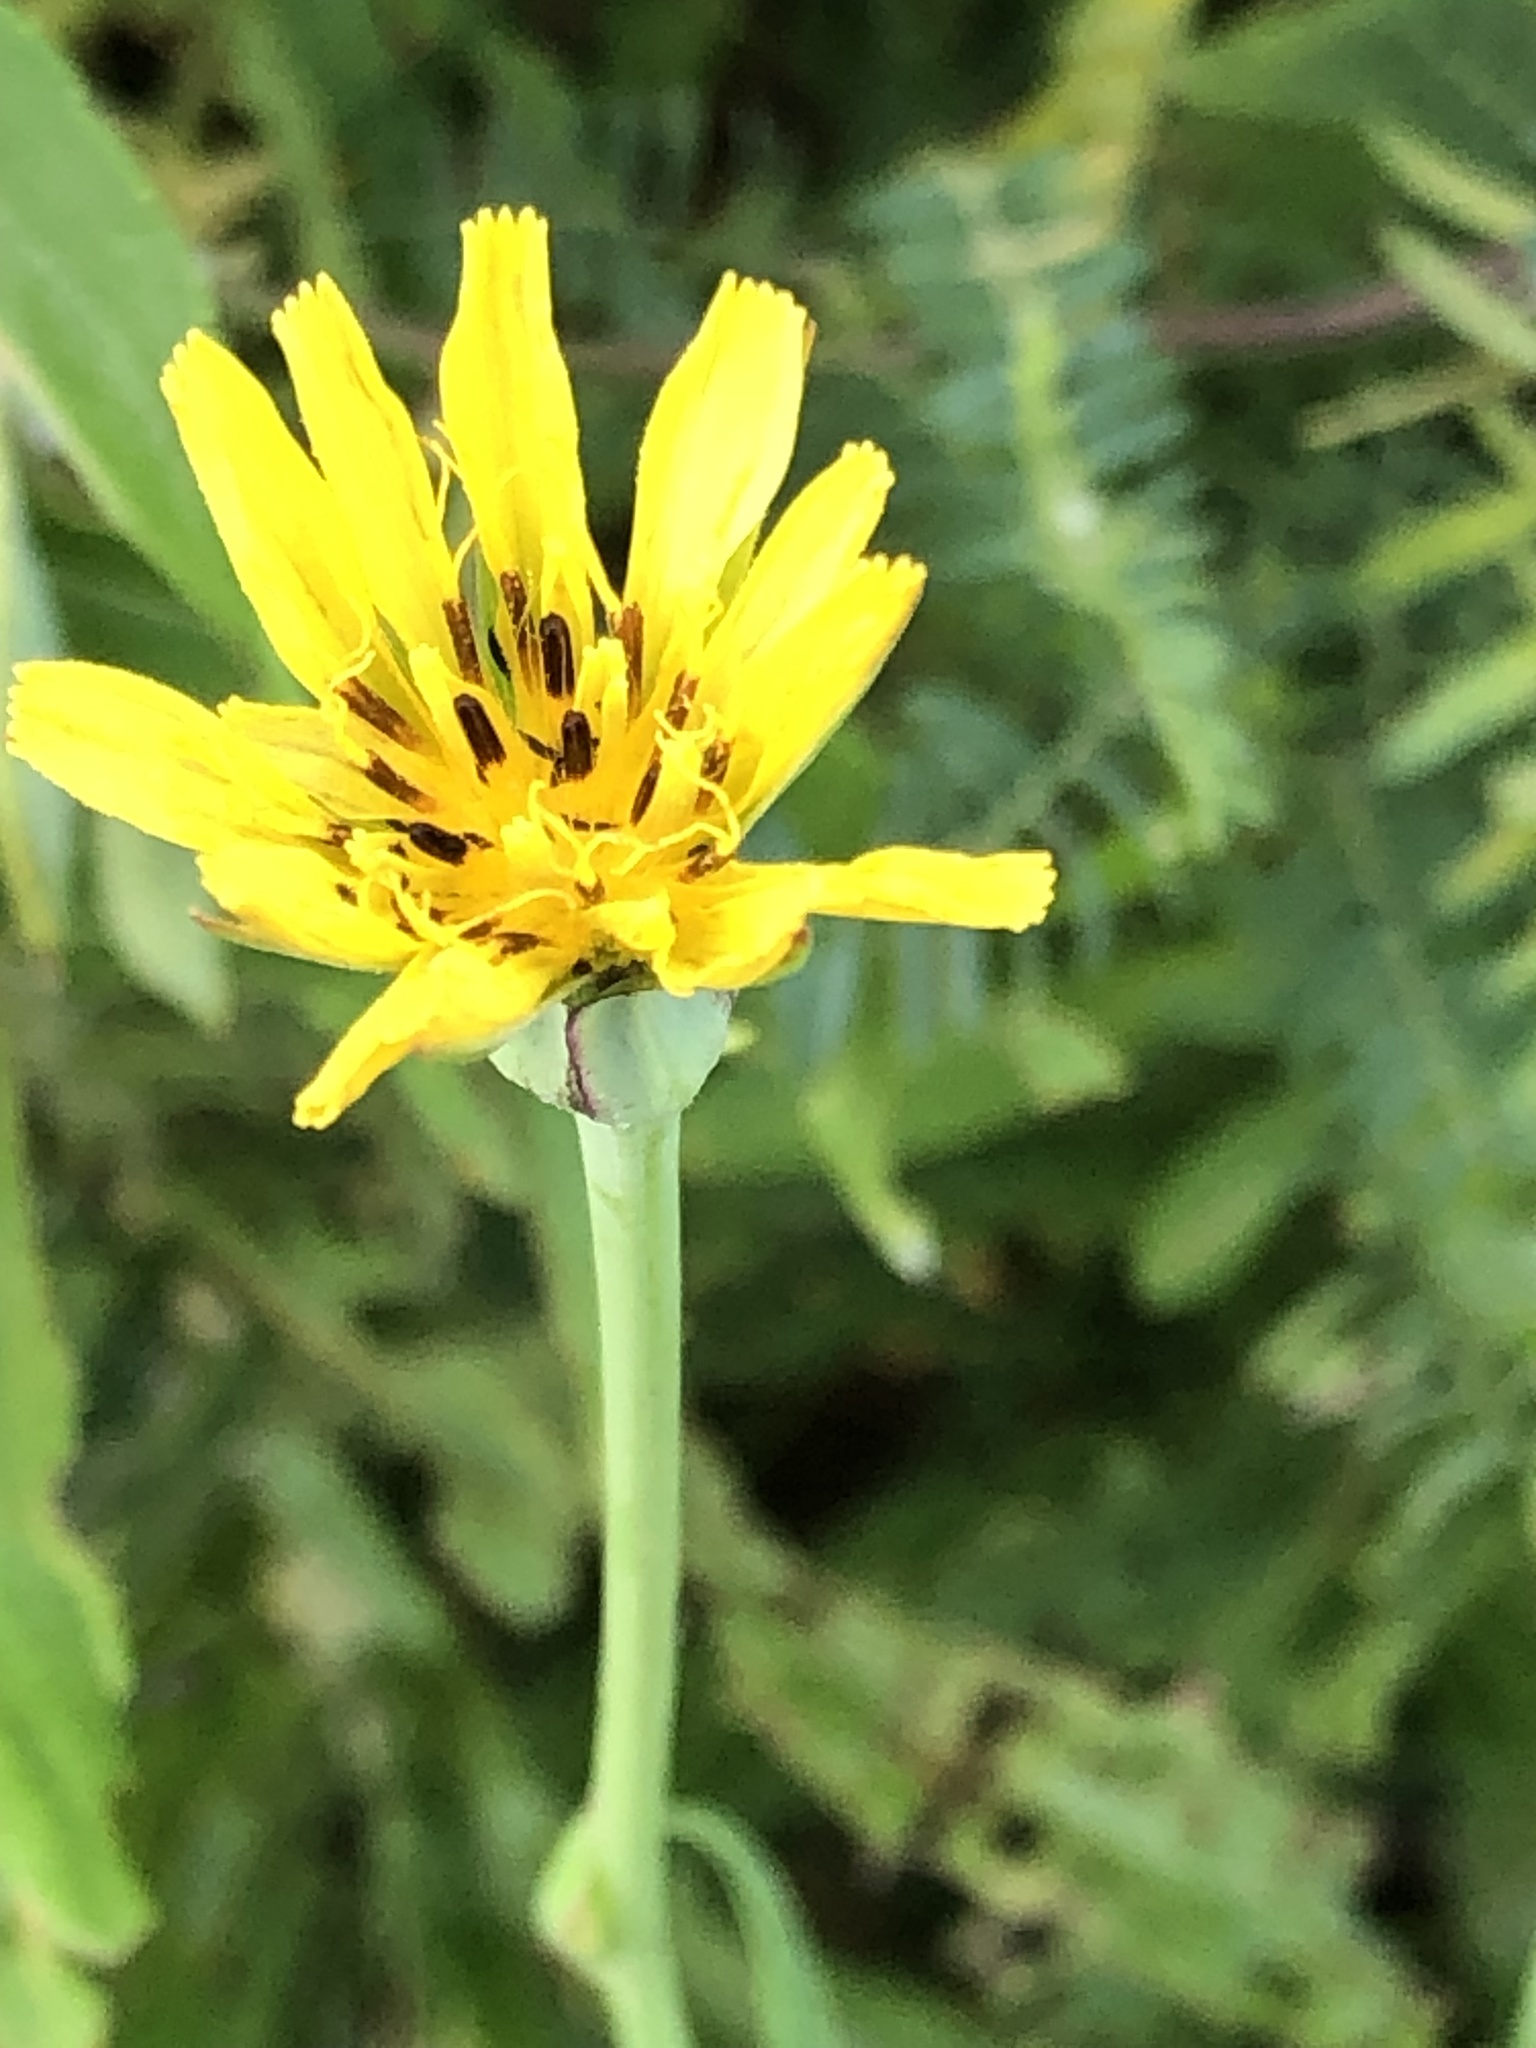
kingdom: Plantae
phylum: Tracheophyta
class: Magnoliopsida
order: Asterales
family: Asteraceae
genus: Tragopogon
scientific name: Tragopogon pratensis
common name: Goat's-beard
